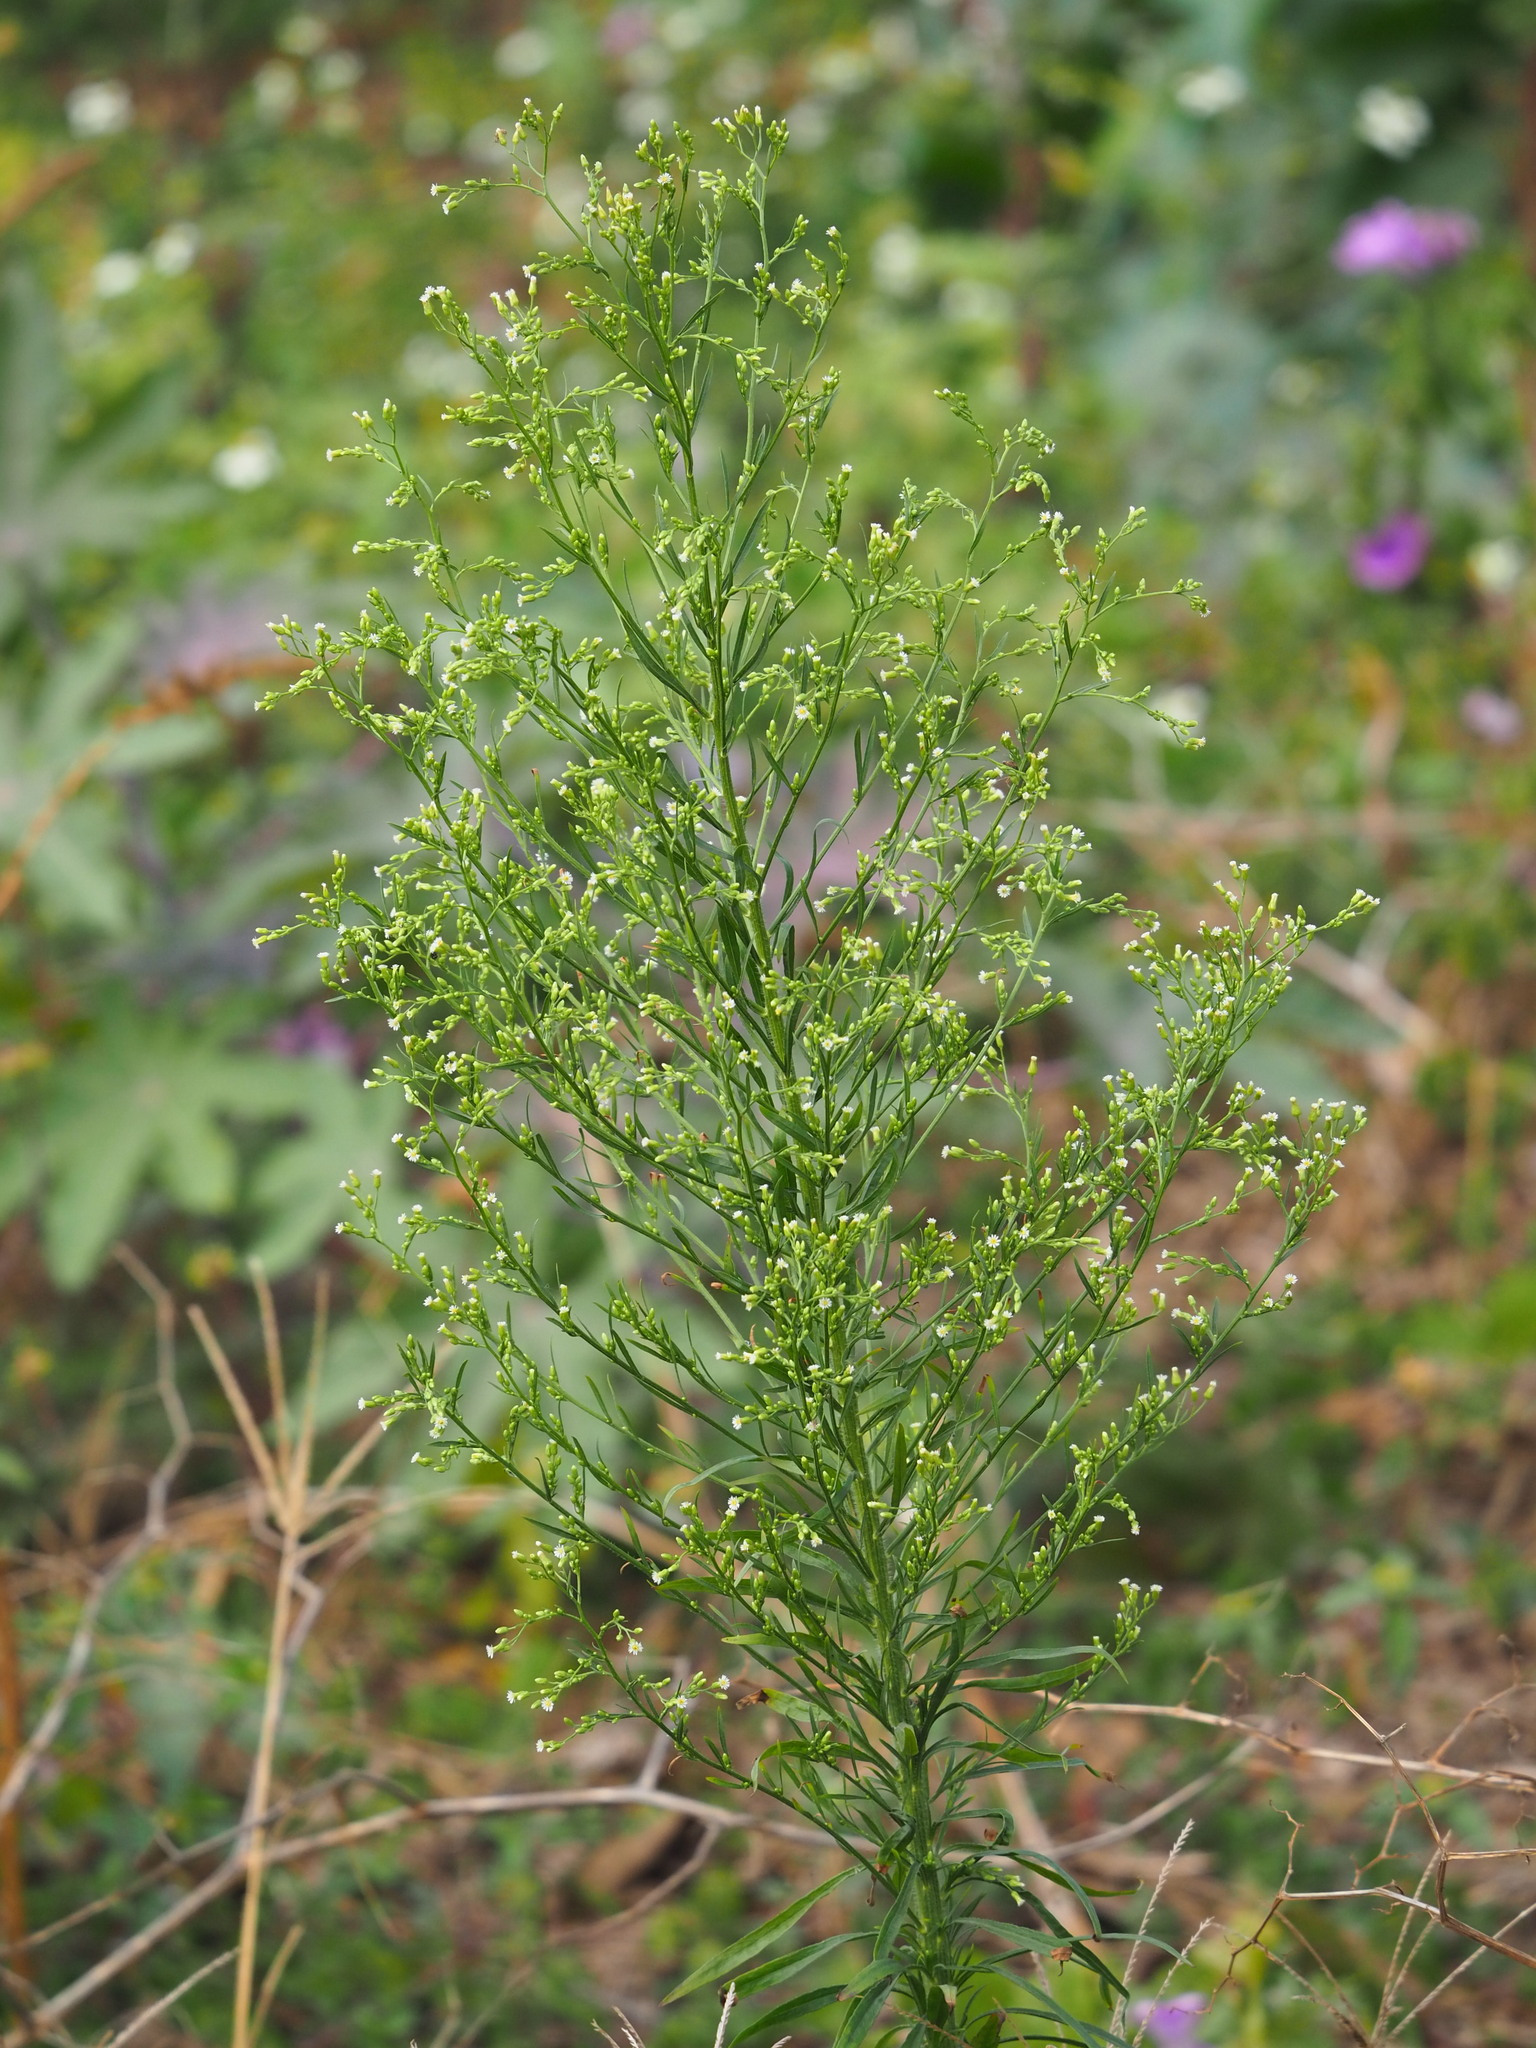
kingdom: Plantae
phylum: Tracheophyta
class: Magnoliopsida
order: Asterales
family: Asteraceae
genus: Erigeron
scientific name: Erigeron canadensis
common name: Canadian fleabane
